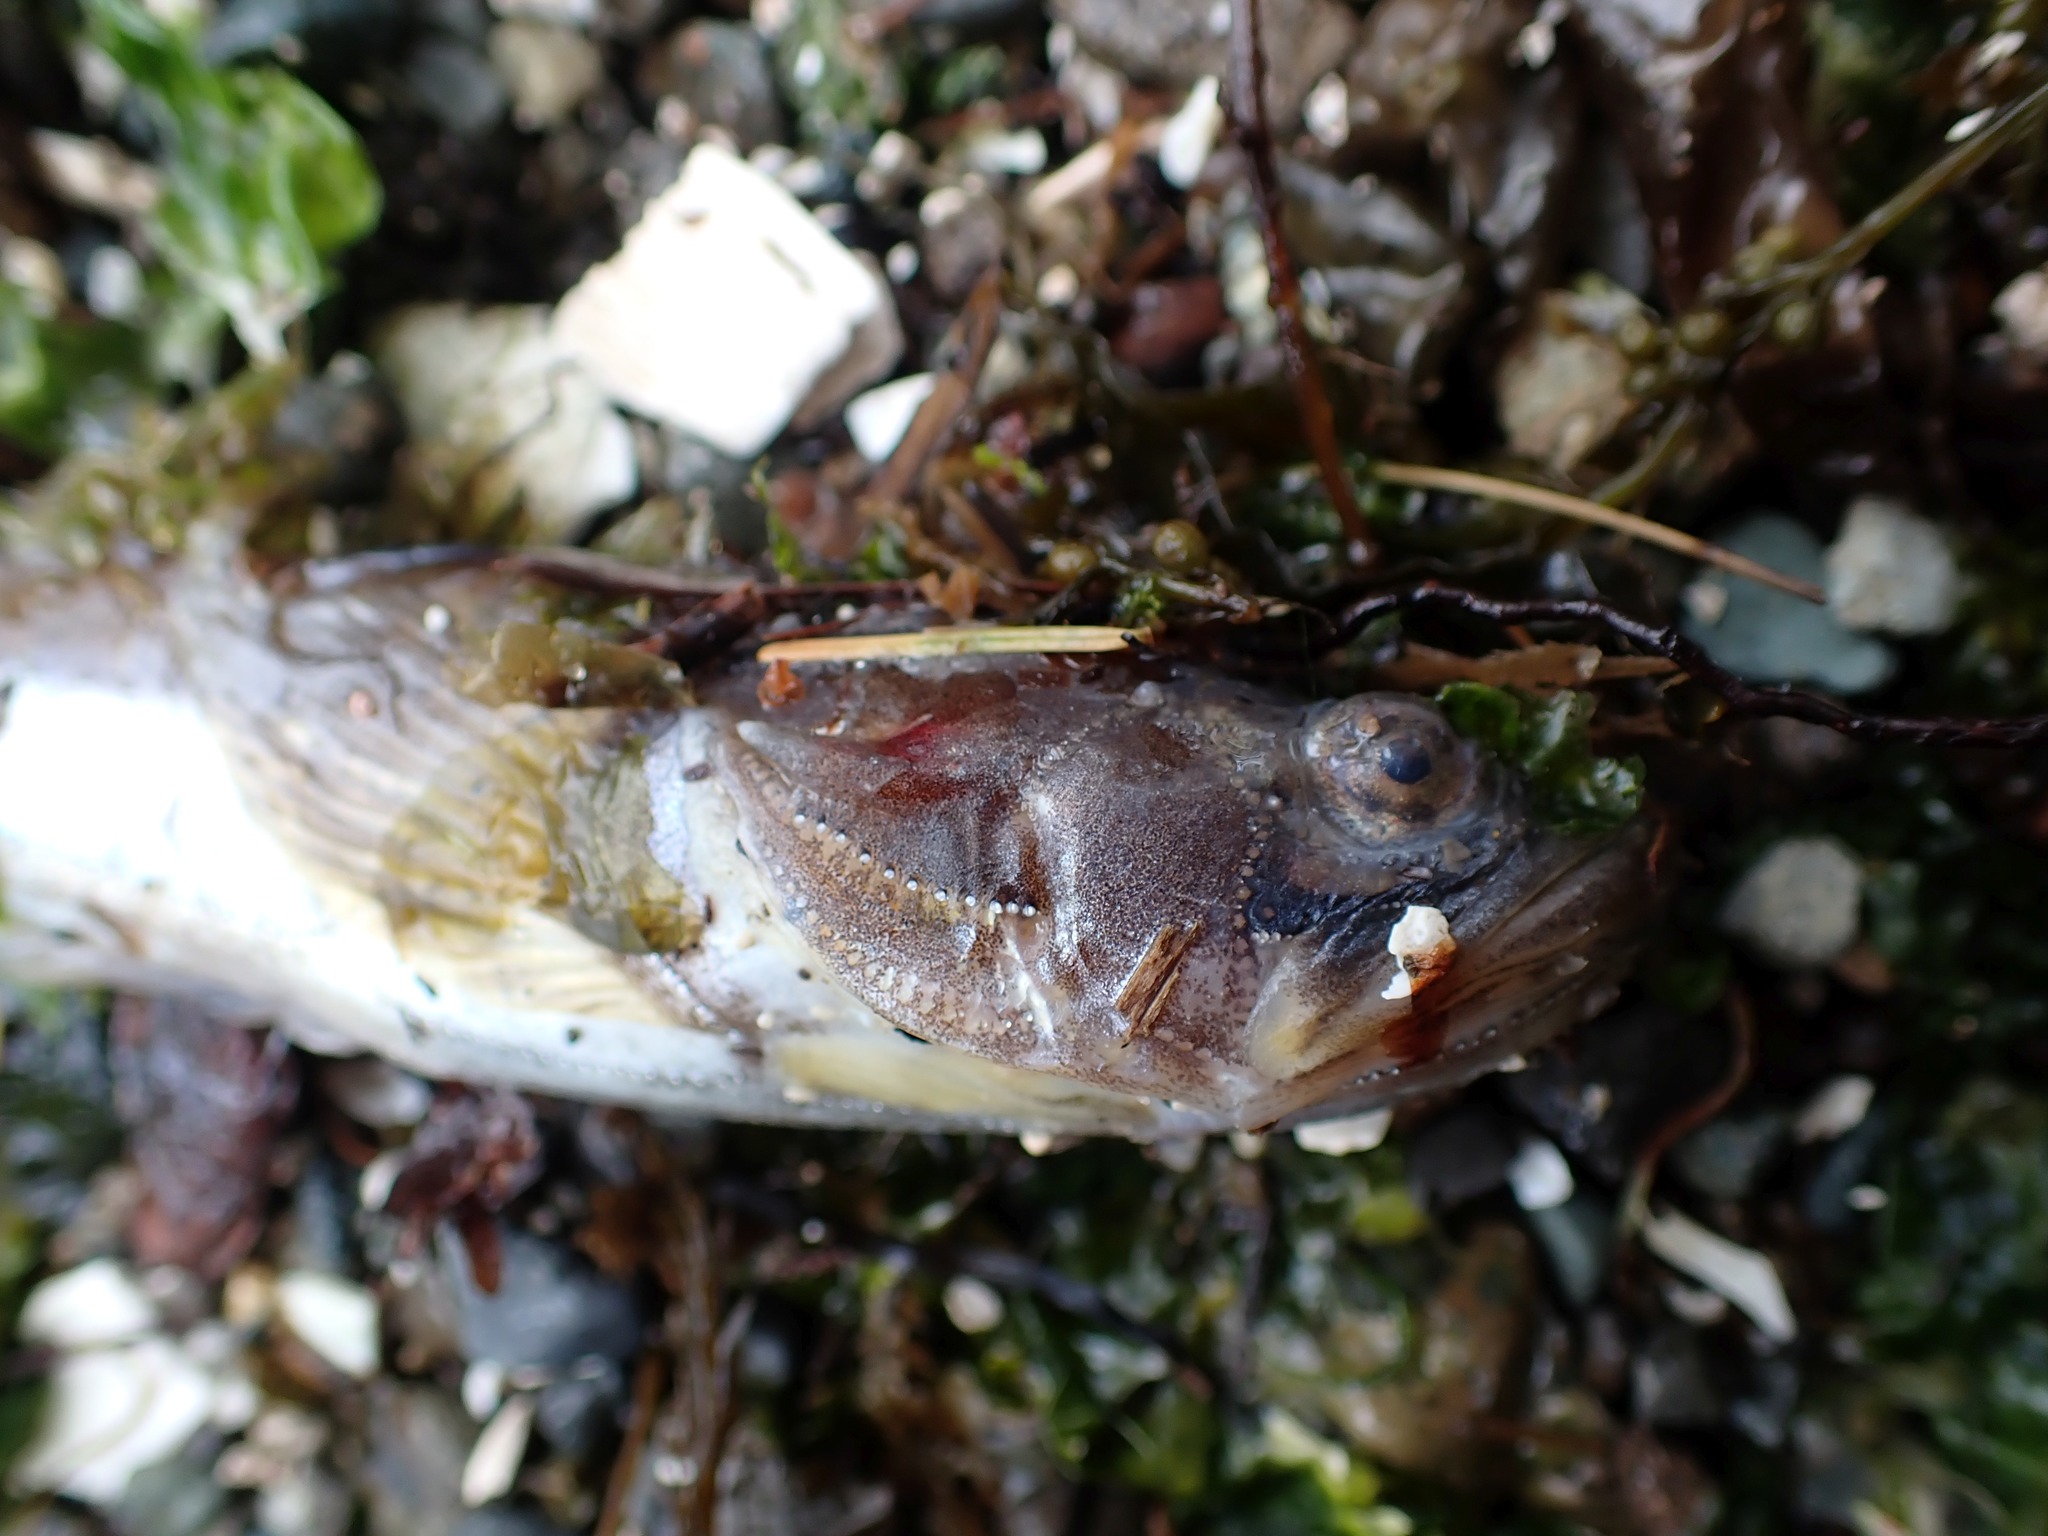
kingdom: Animalia
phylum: Chordata
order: Batrachoidiformes
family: Batrachoididae
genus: Porichthys
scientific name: Porichthys notatus
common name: Plainfin midshipman
